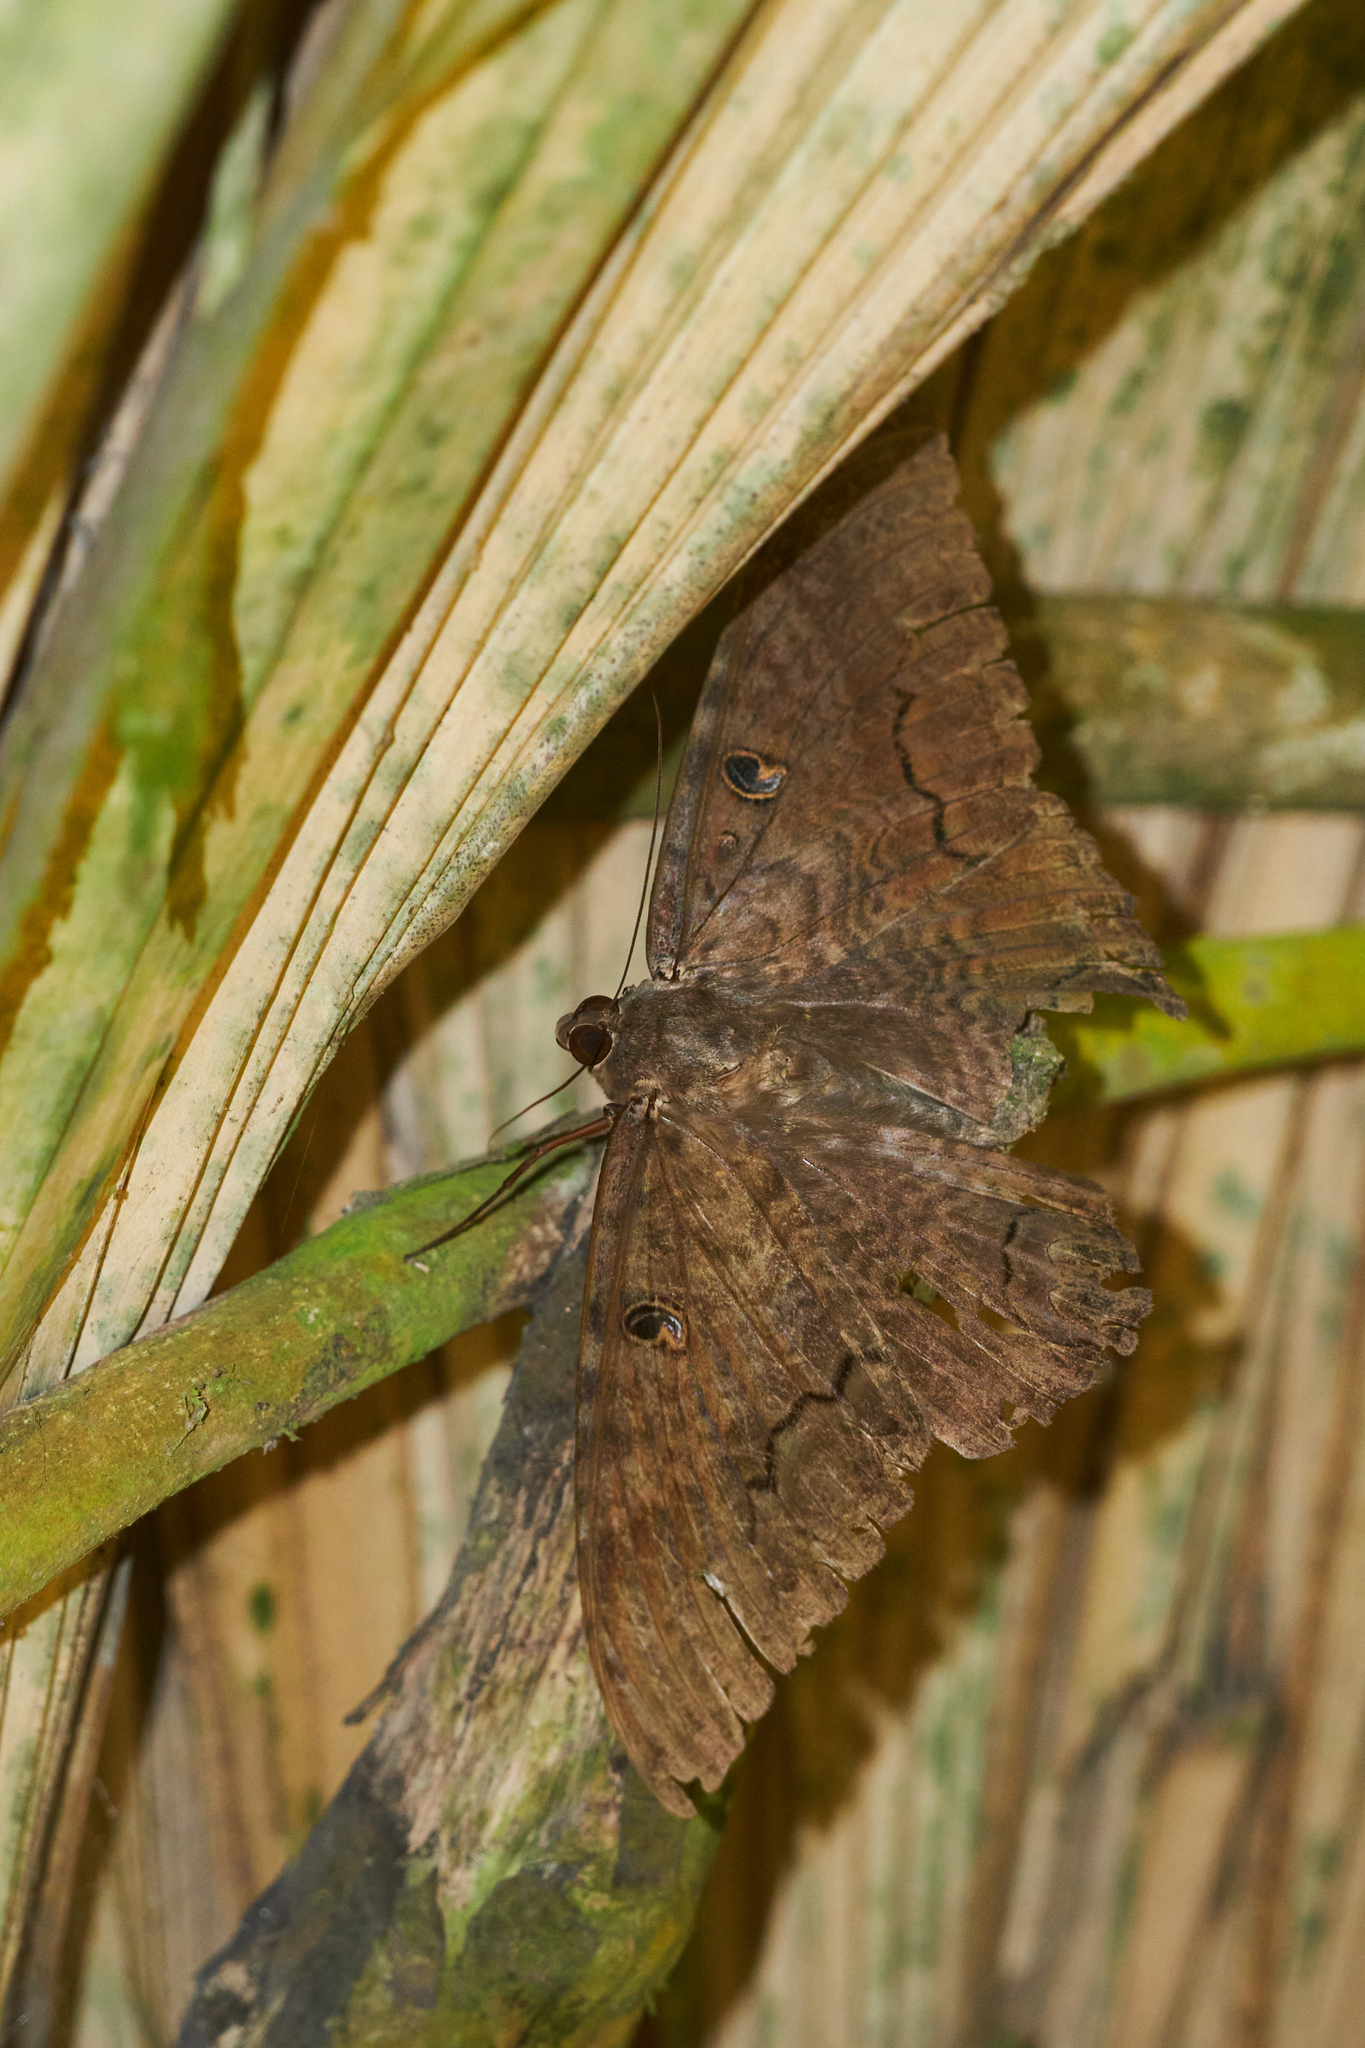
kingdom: Animalia
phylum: Arthropoda
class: Insecta
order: Lepidoptera
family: Erebidae
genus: Ascalapha
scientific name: Ascalapha odorata
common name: Black witch
